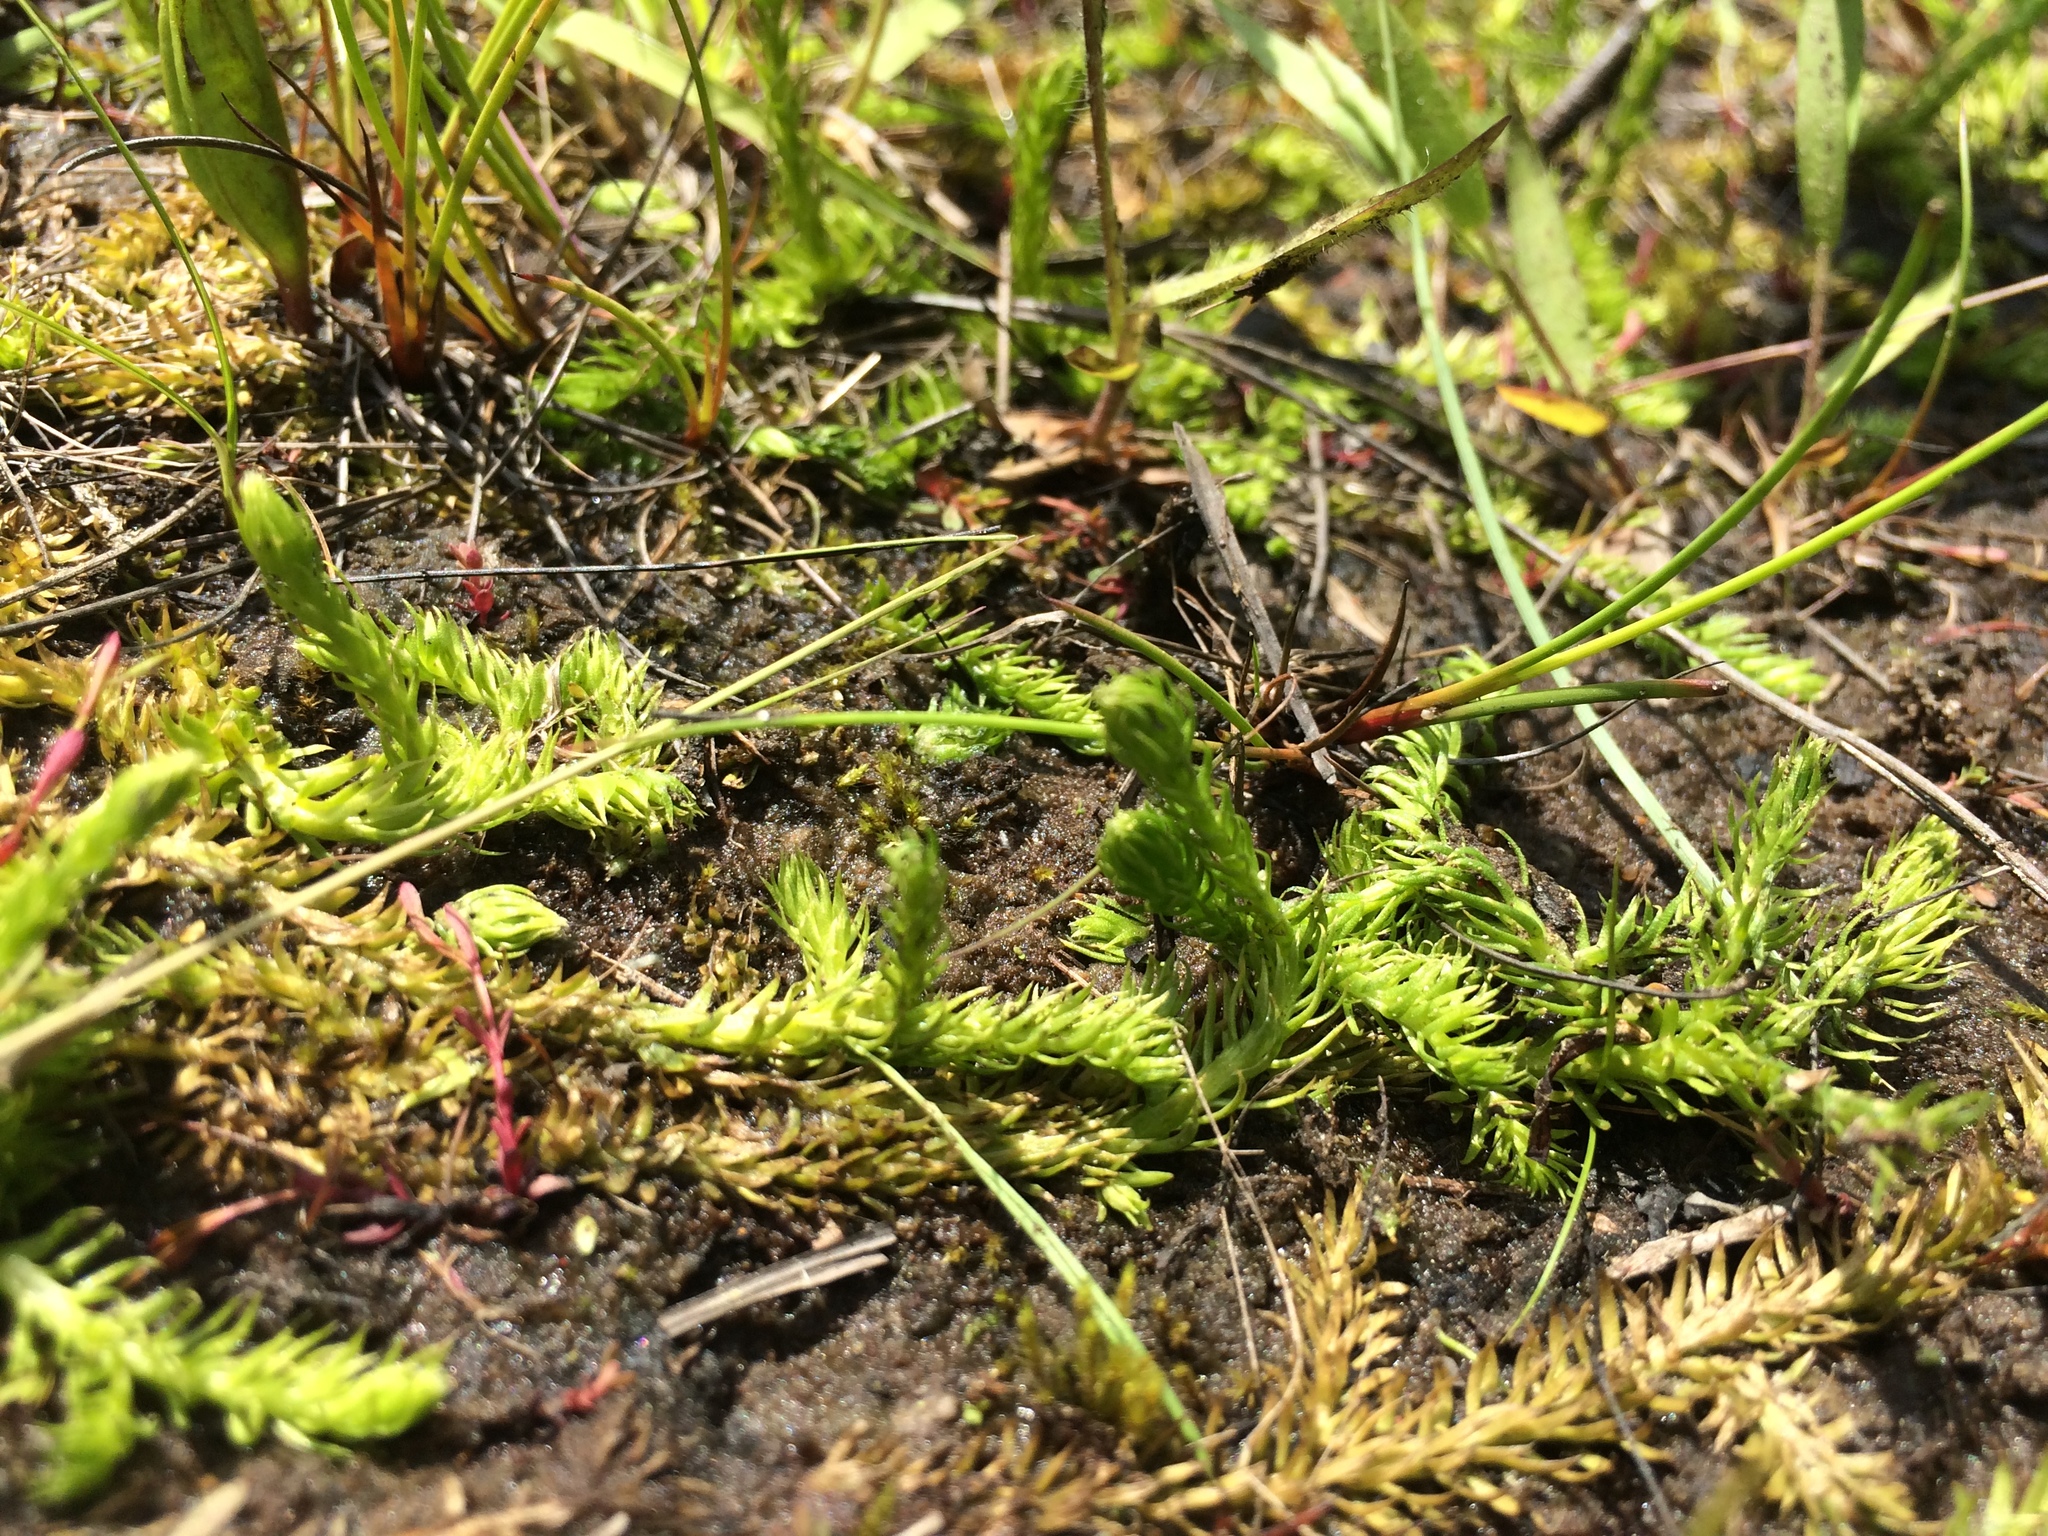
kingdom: Plantae
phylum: Tracheophyta
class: Lycopodiopsida
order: Lycopodiales
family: Lycopodiaceae
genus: Lycopodiella
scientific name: Lycopodiella inundata
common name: Marsh clubmoss
